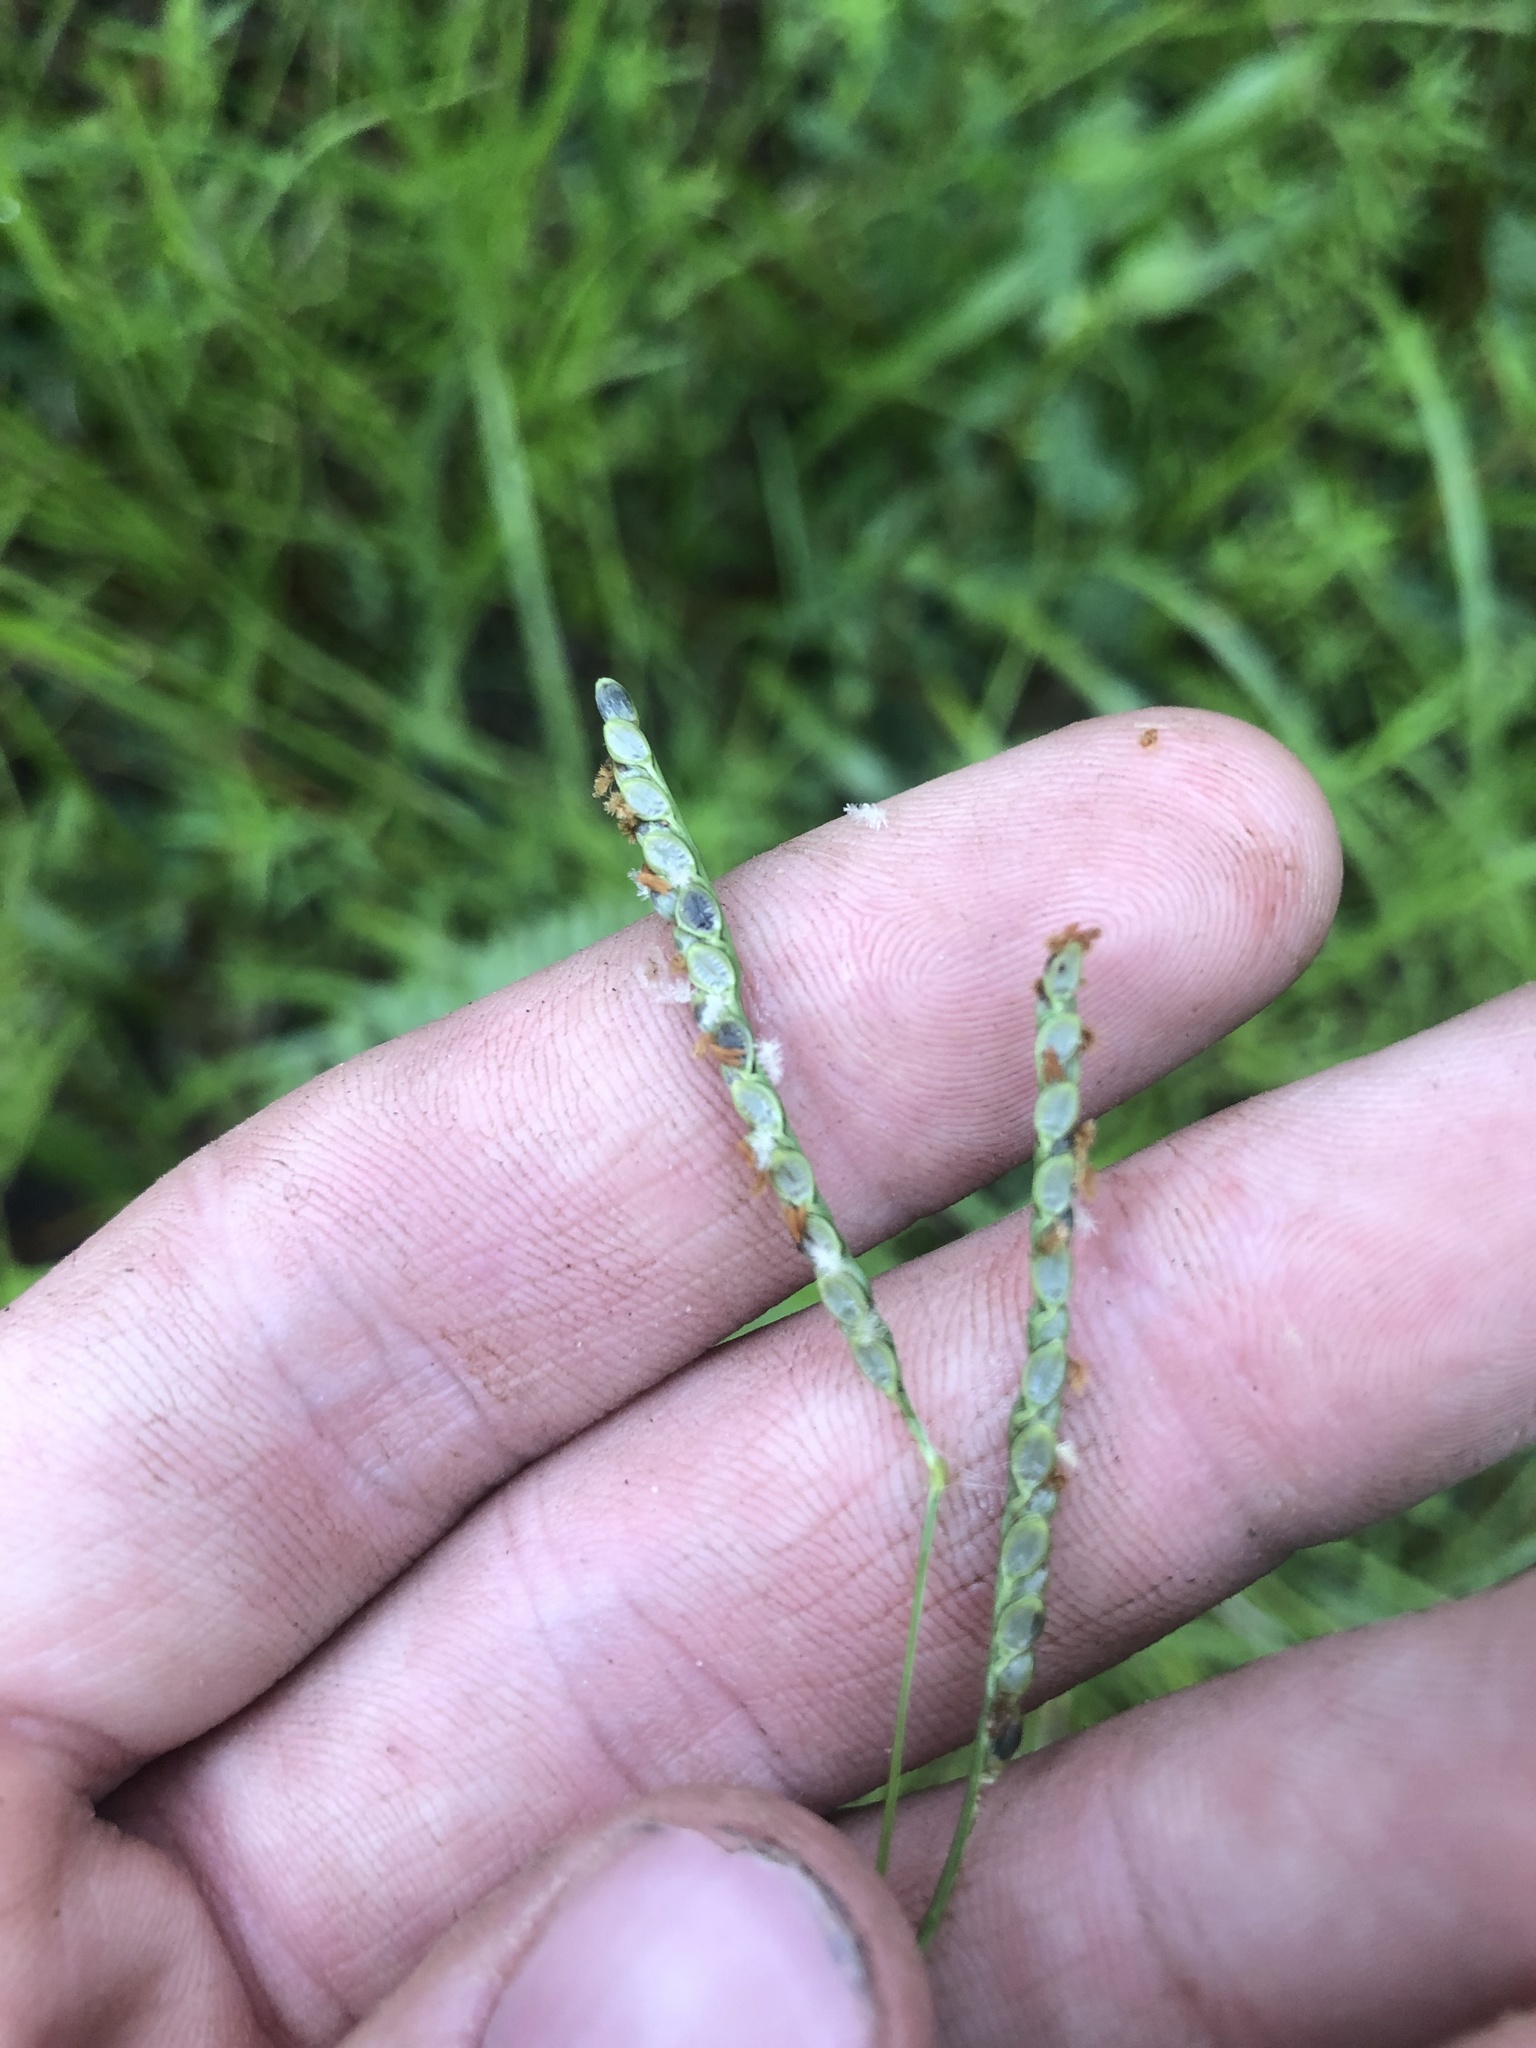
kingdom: Plantae
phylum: Tracheophyta
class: Liliopsida
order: Poales
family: Poaceae
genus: Paspalum
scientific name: Paspalum lepton
